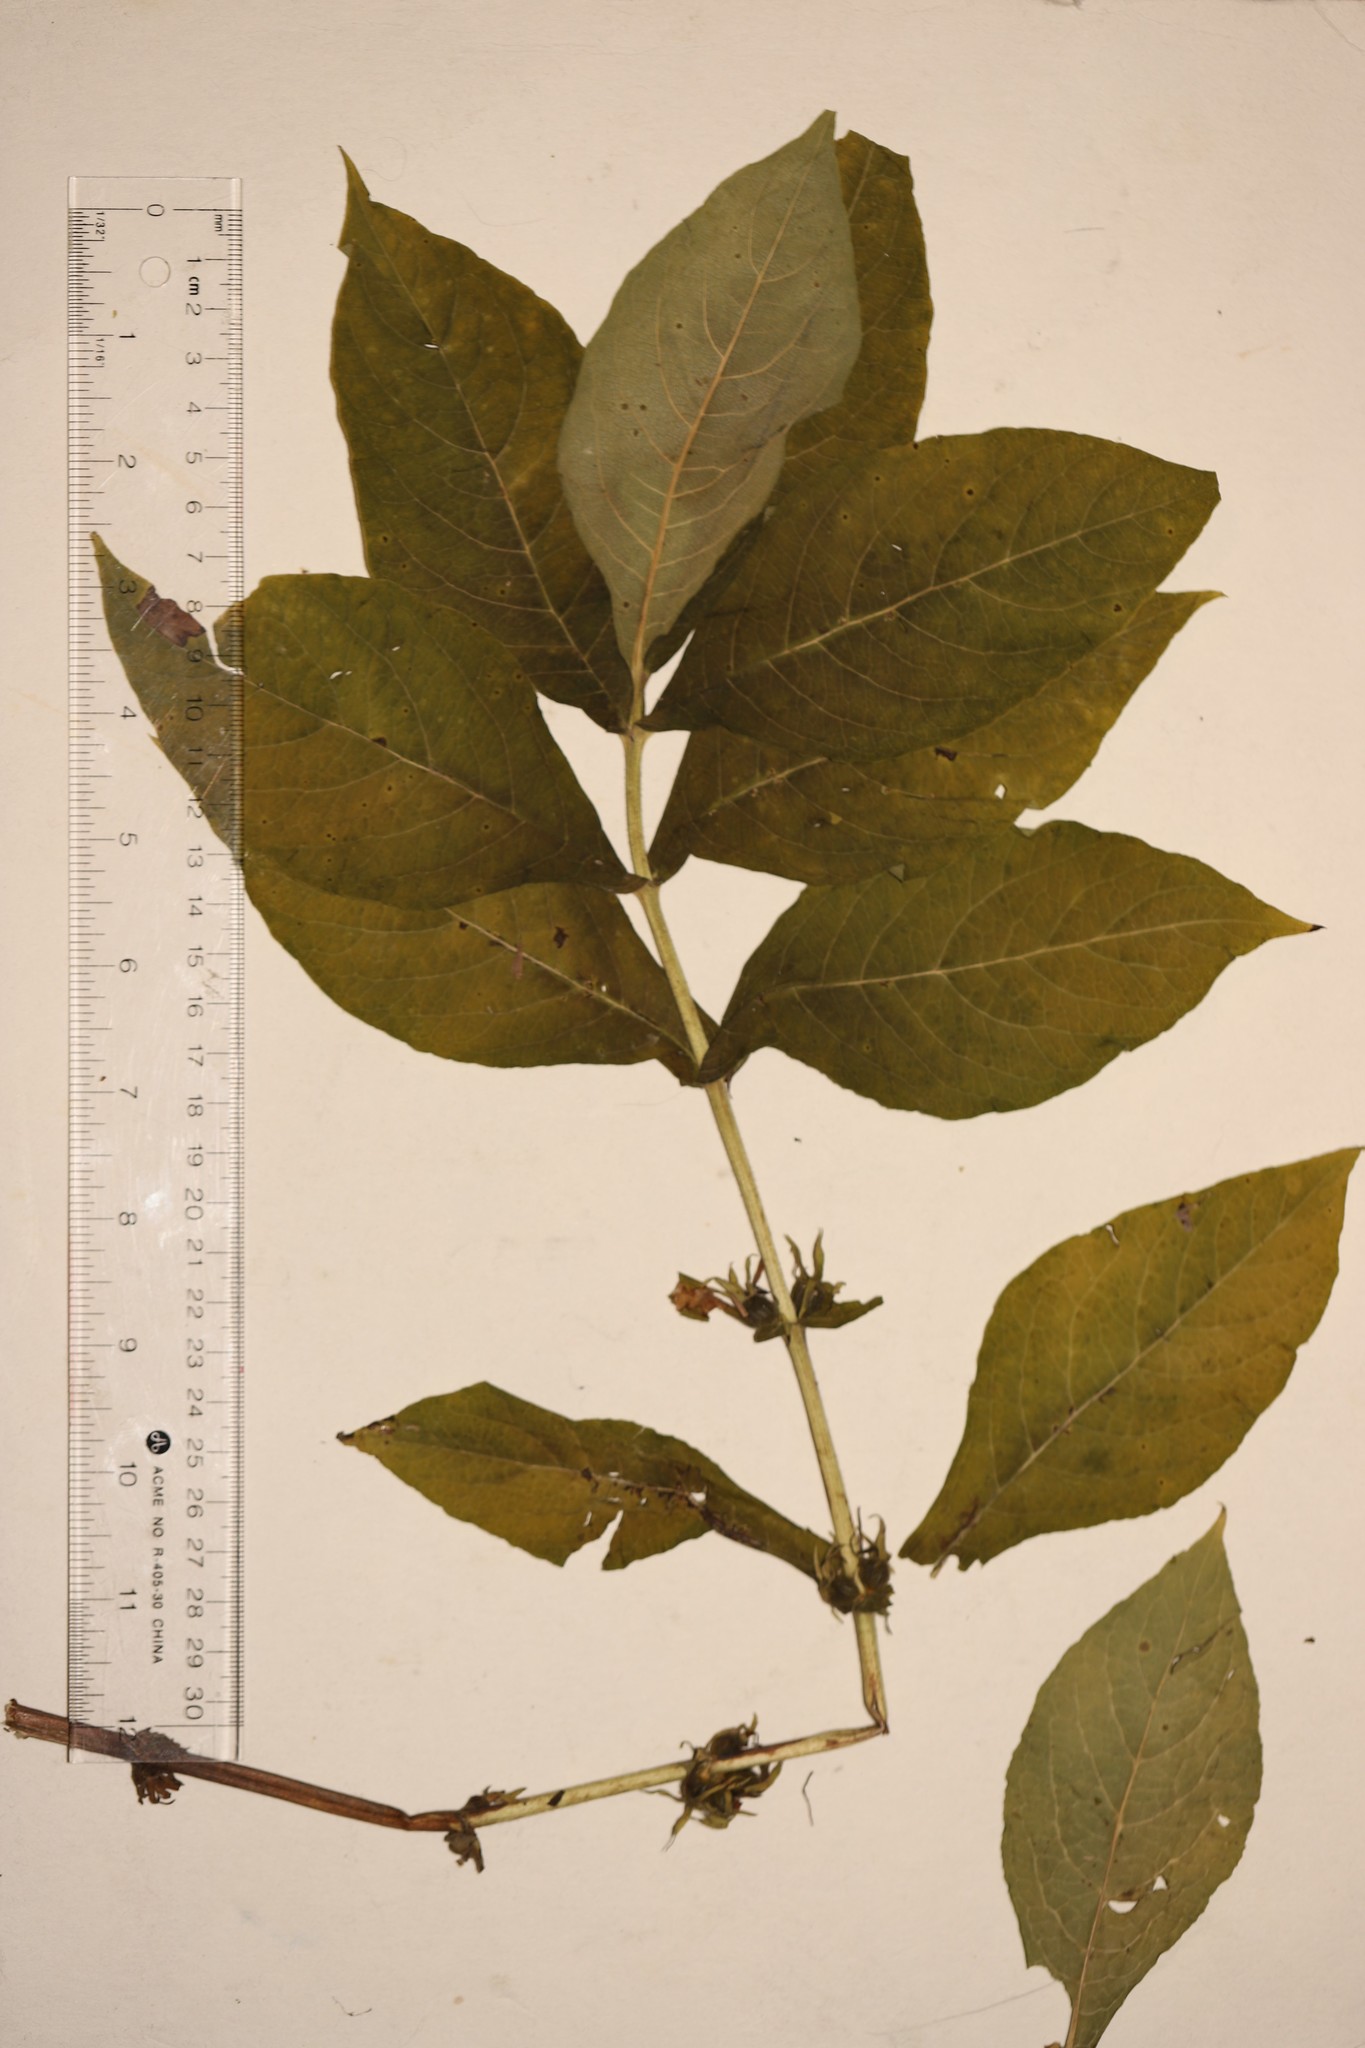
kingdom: Plantae
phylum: Tracheophyta
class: Magnoliopsida
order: Dipsacales
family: Caprifoliaceae
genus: Triosteum
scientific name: Triosteum aurantiacum
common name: Coffee tinker's-weed
